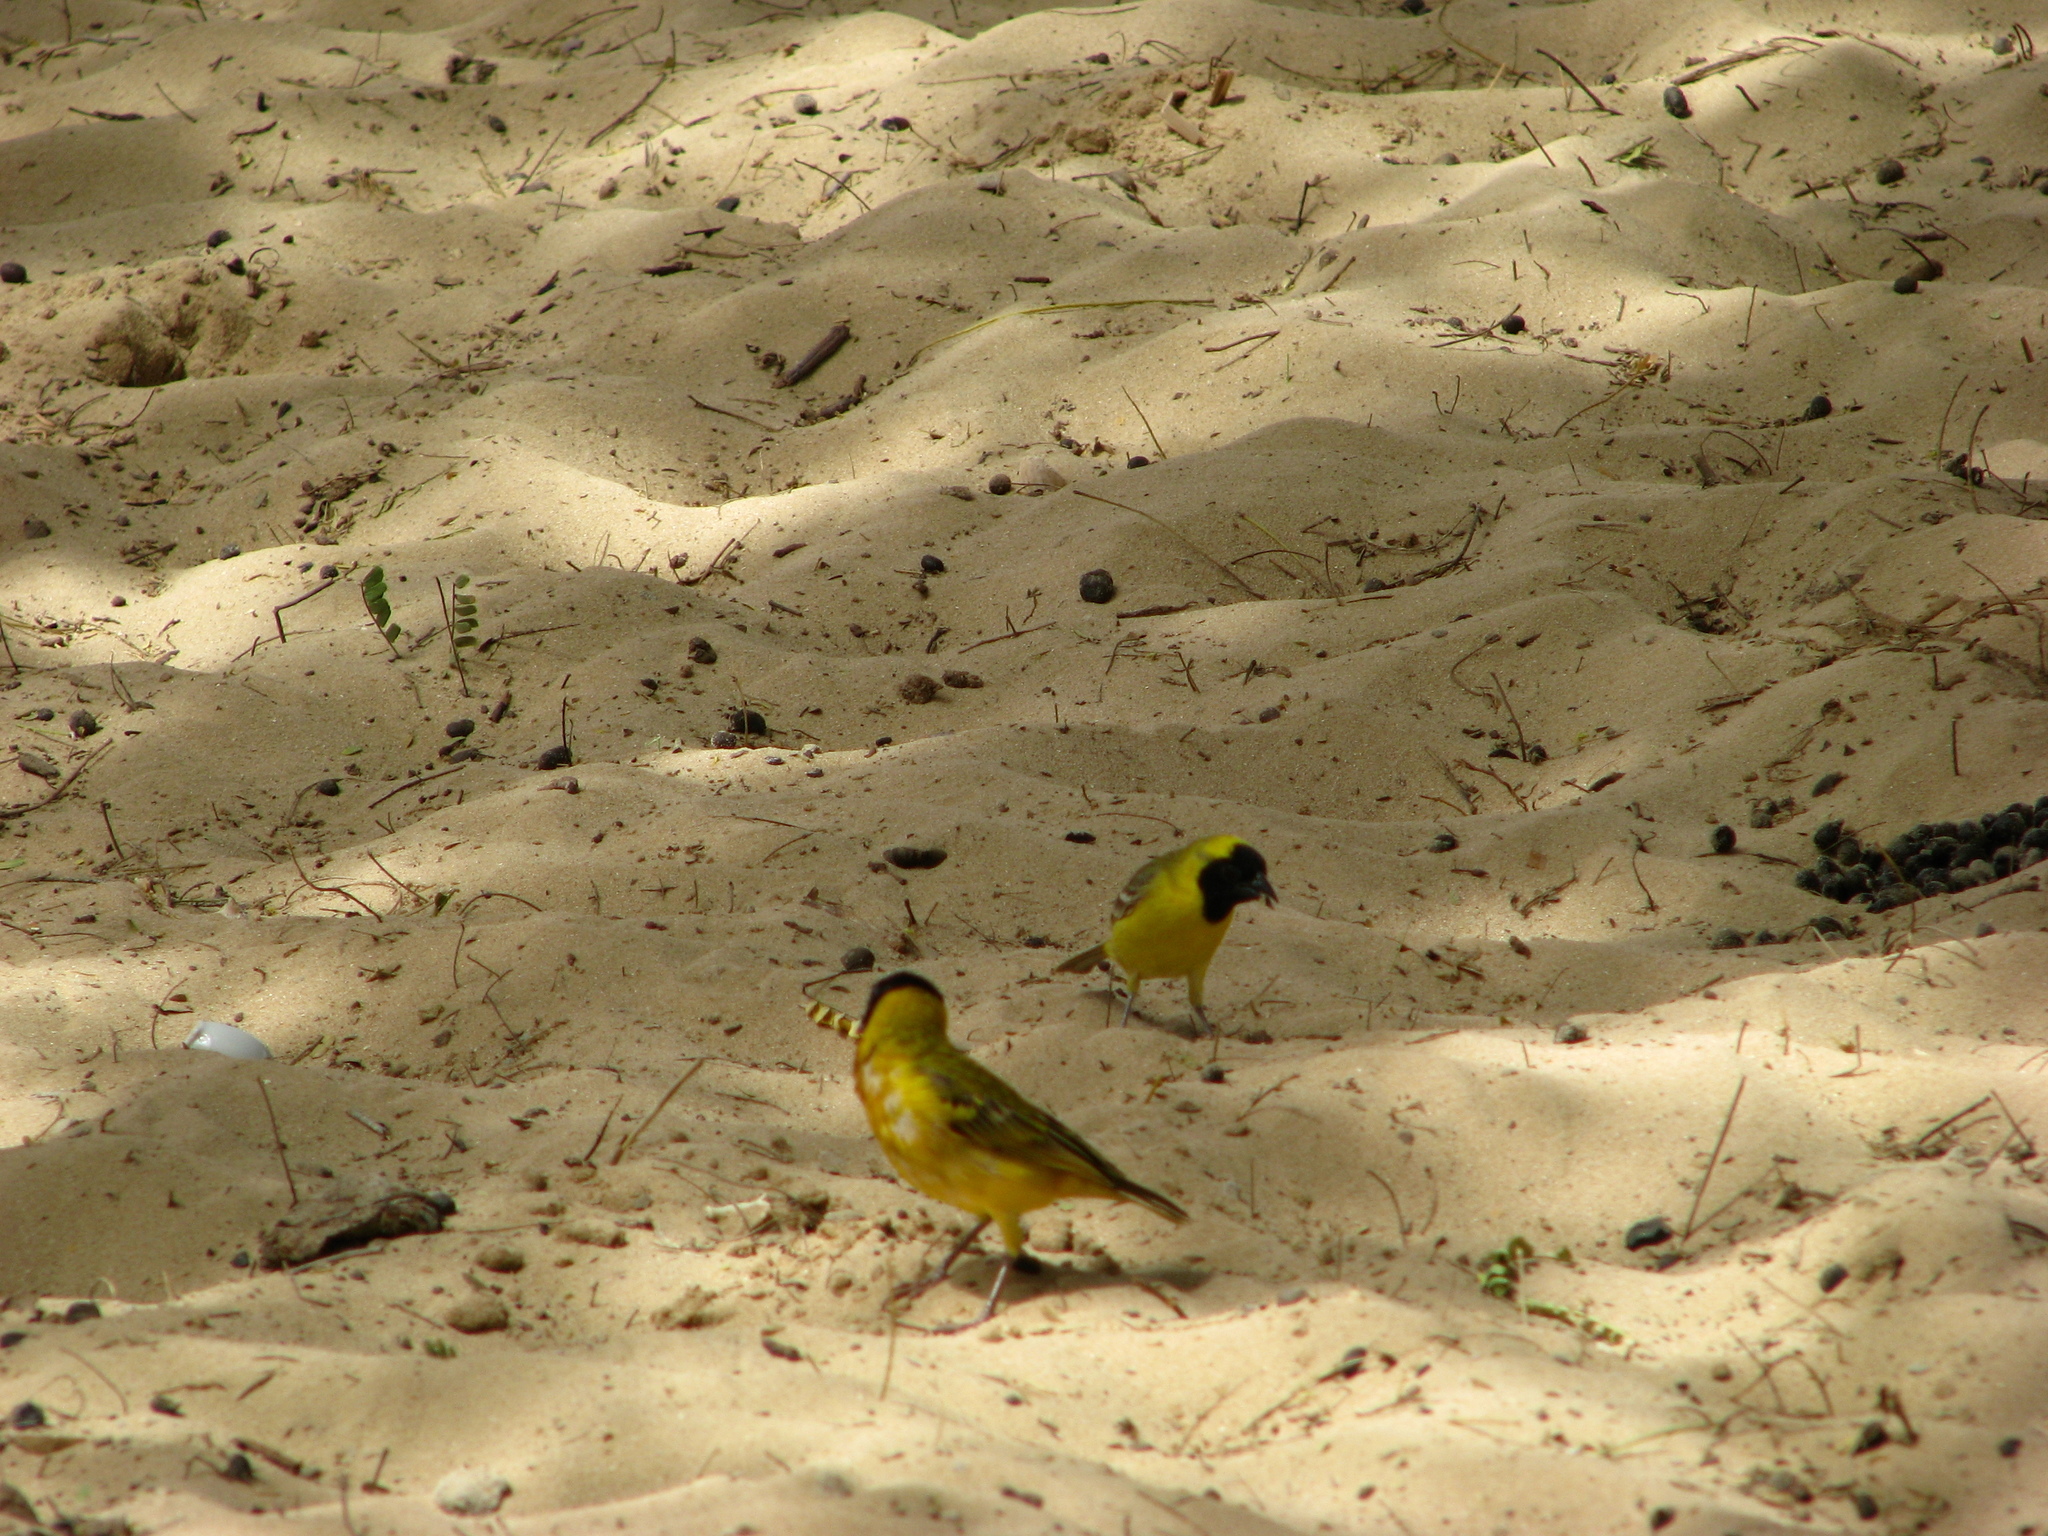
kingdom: Animalia
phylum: Chordata
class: Aves
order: Passeriformes
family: Ploceidae
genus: Ploceus
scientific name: Ploceus luteolus
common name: Little weaver
